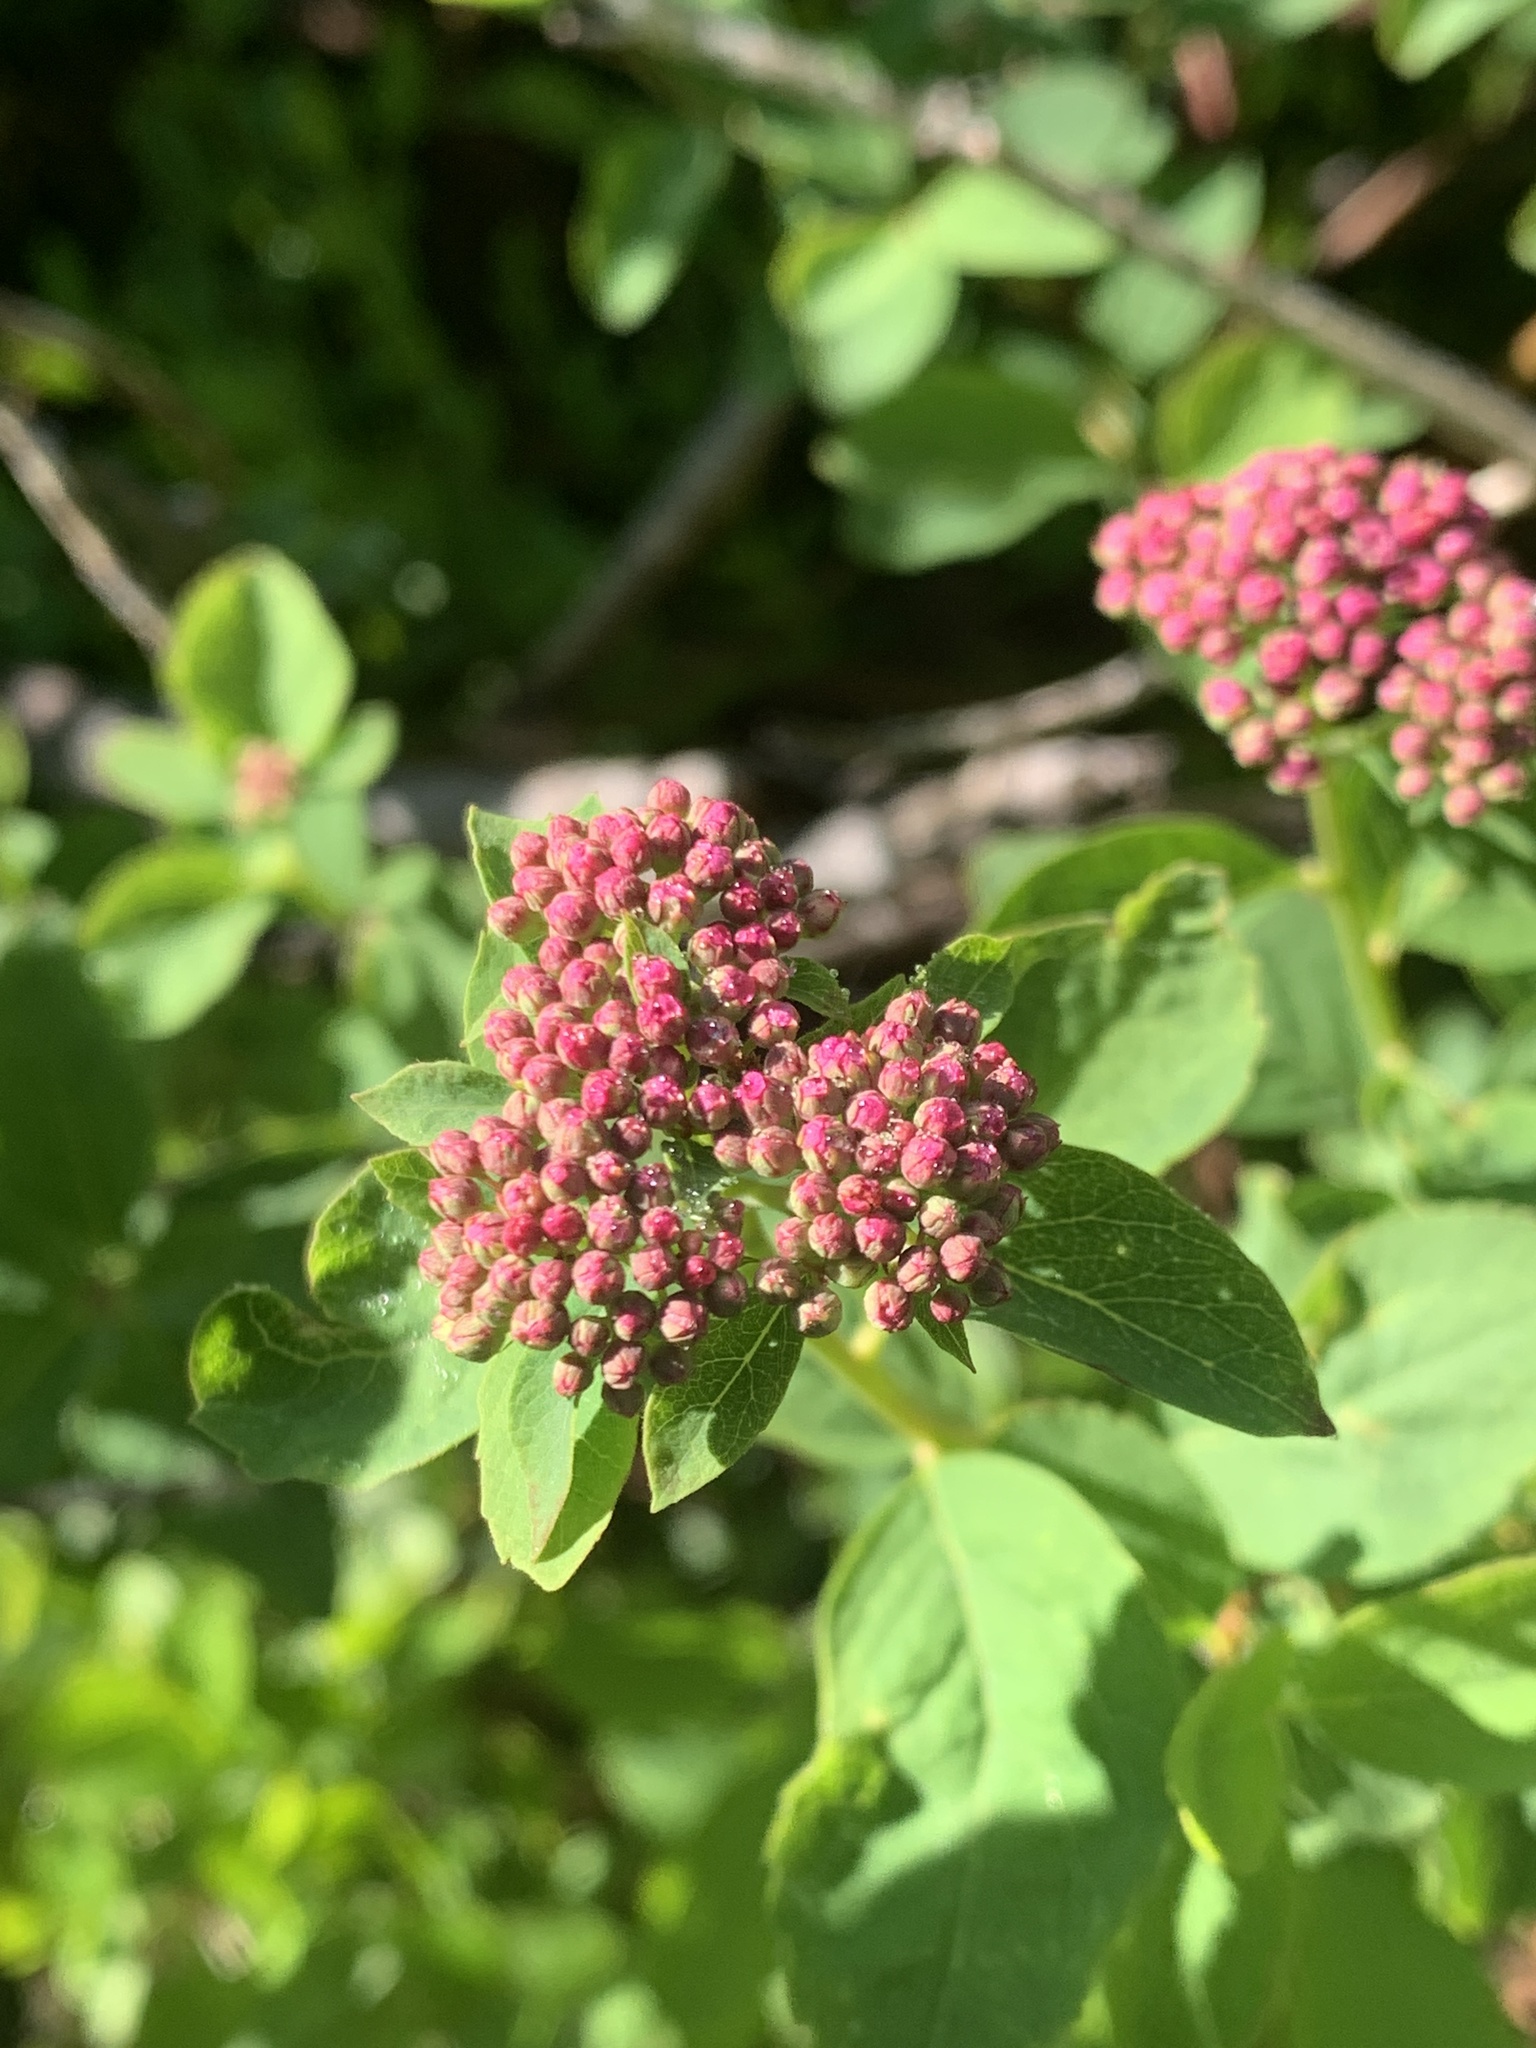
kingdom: Plantae
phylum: Tracheophyta
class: Magnoliopsida
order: Rosales
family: Rosaceae
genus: Spiraea
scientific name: Spiraea splendens
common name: Subalpine meadowsweet
